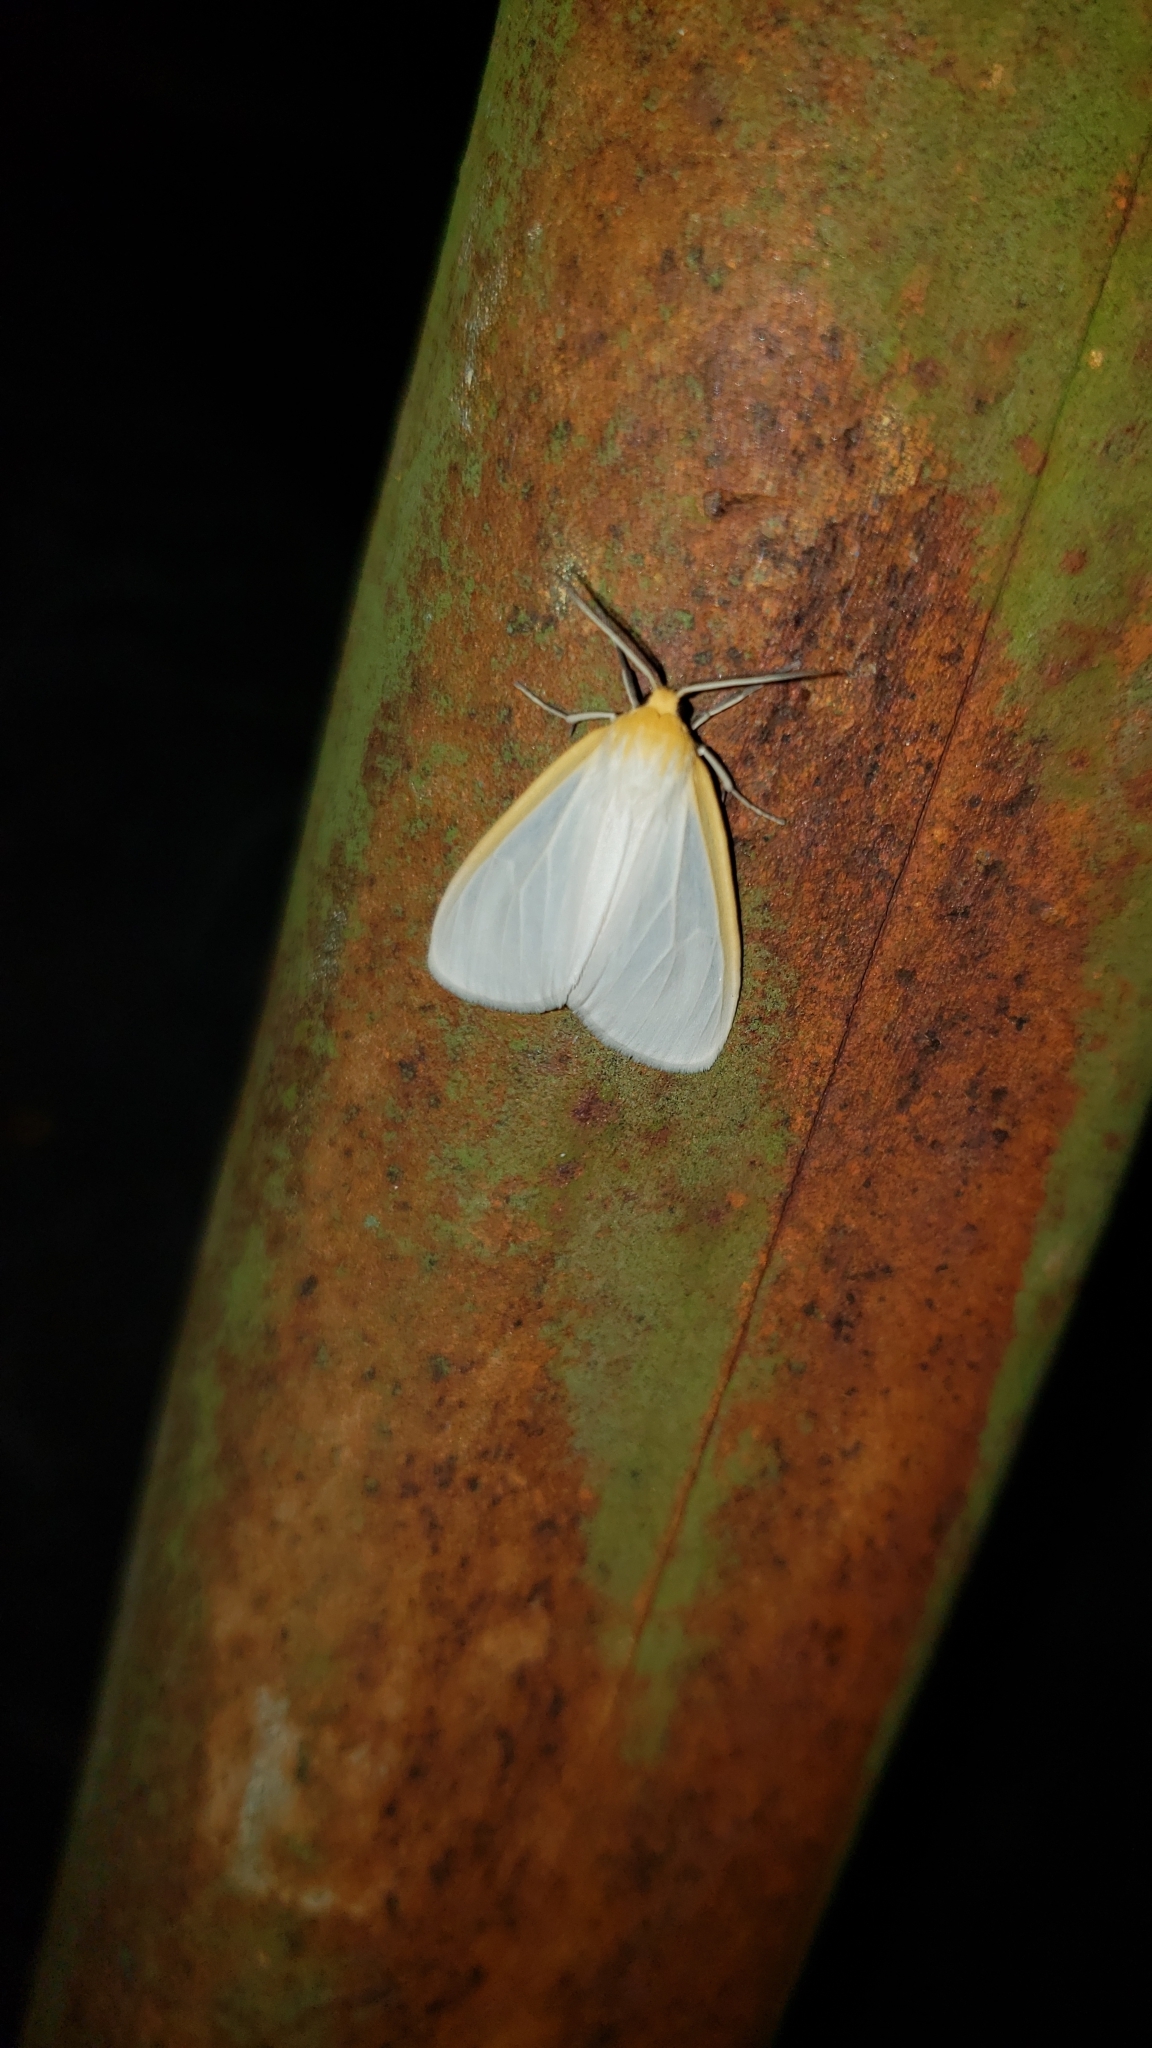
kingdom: Animalia
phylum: Arthropoda
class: Insecta
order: Lepidoptera
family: Erebidae
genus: Cycnia
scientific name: Cycnia tenera
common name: Delicate cycnia moth
